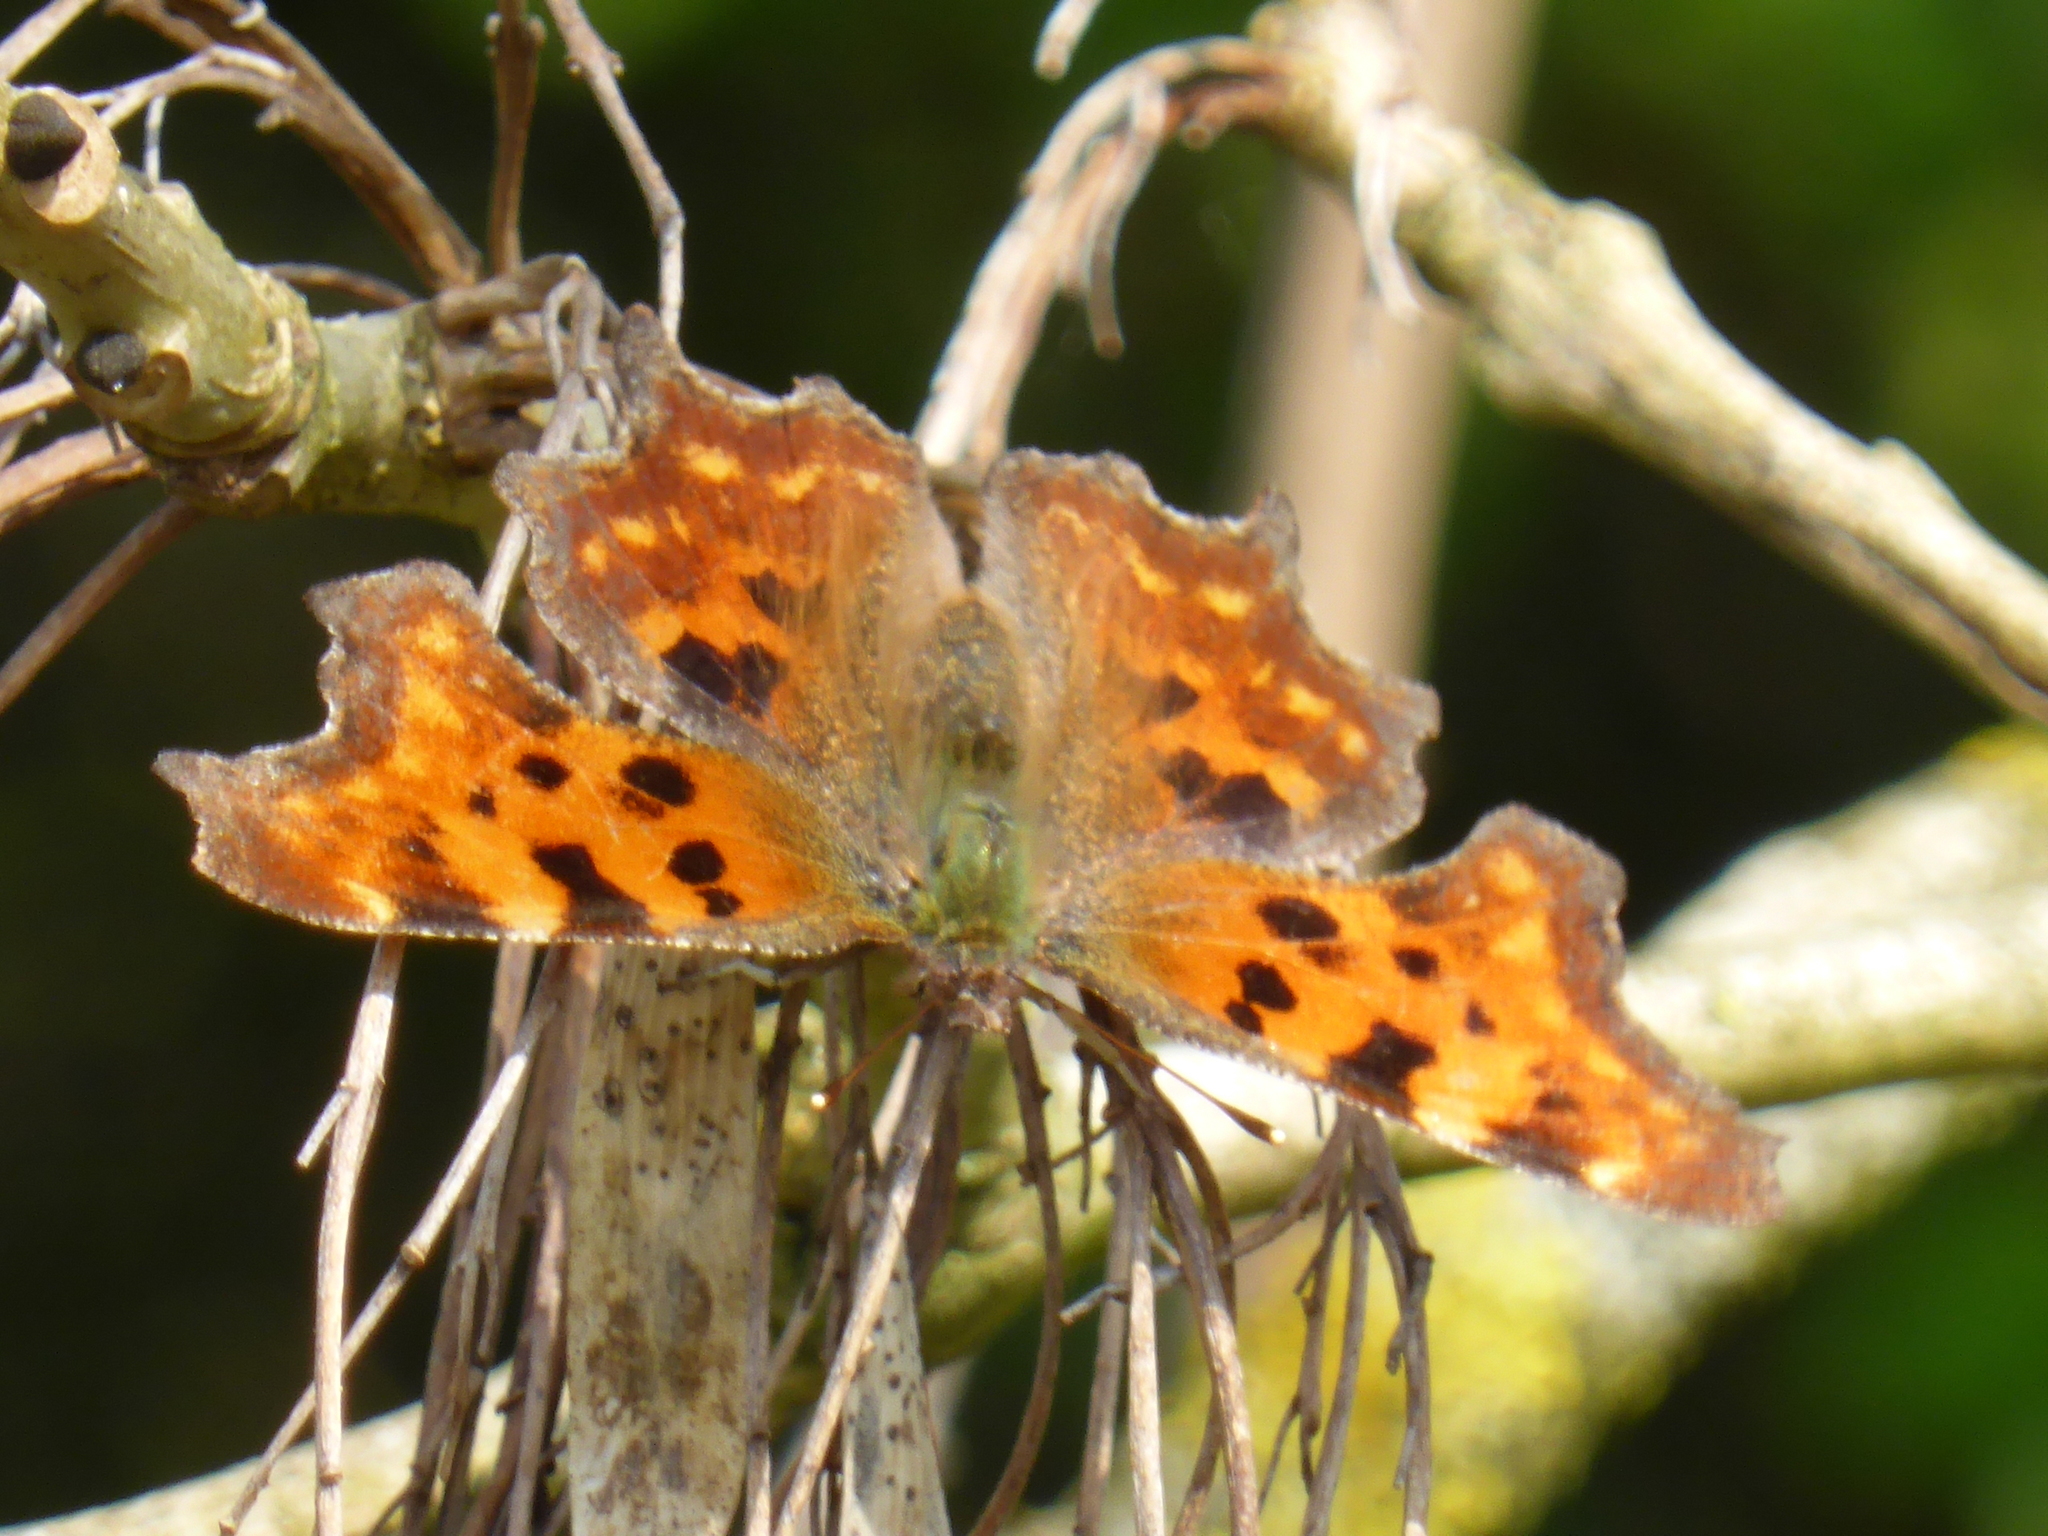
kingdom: Animalia
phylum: Arthropoda
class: Insecta
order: Lepidoptera
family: Nymphalidae
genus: Polygonia
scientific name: Polygonia c-album
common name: Comma
